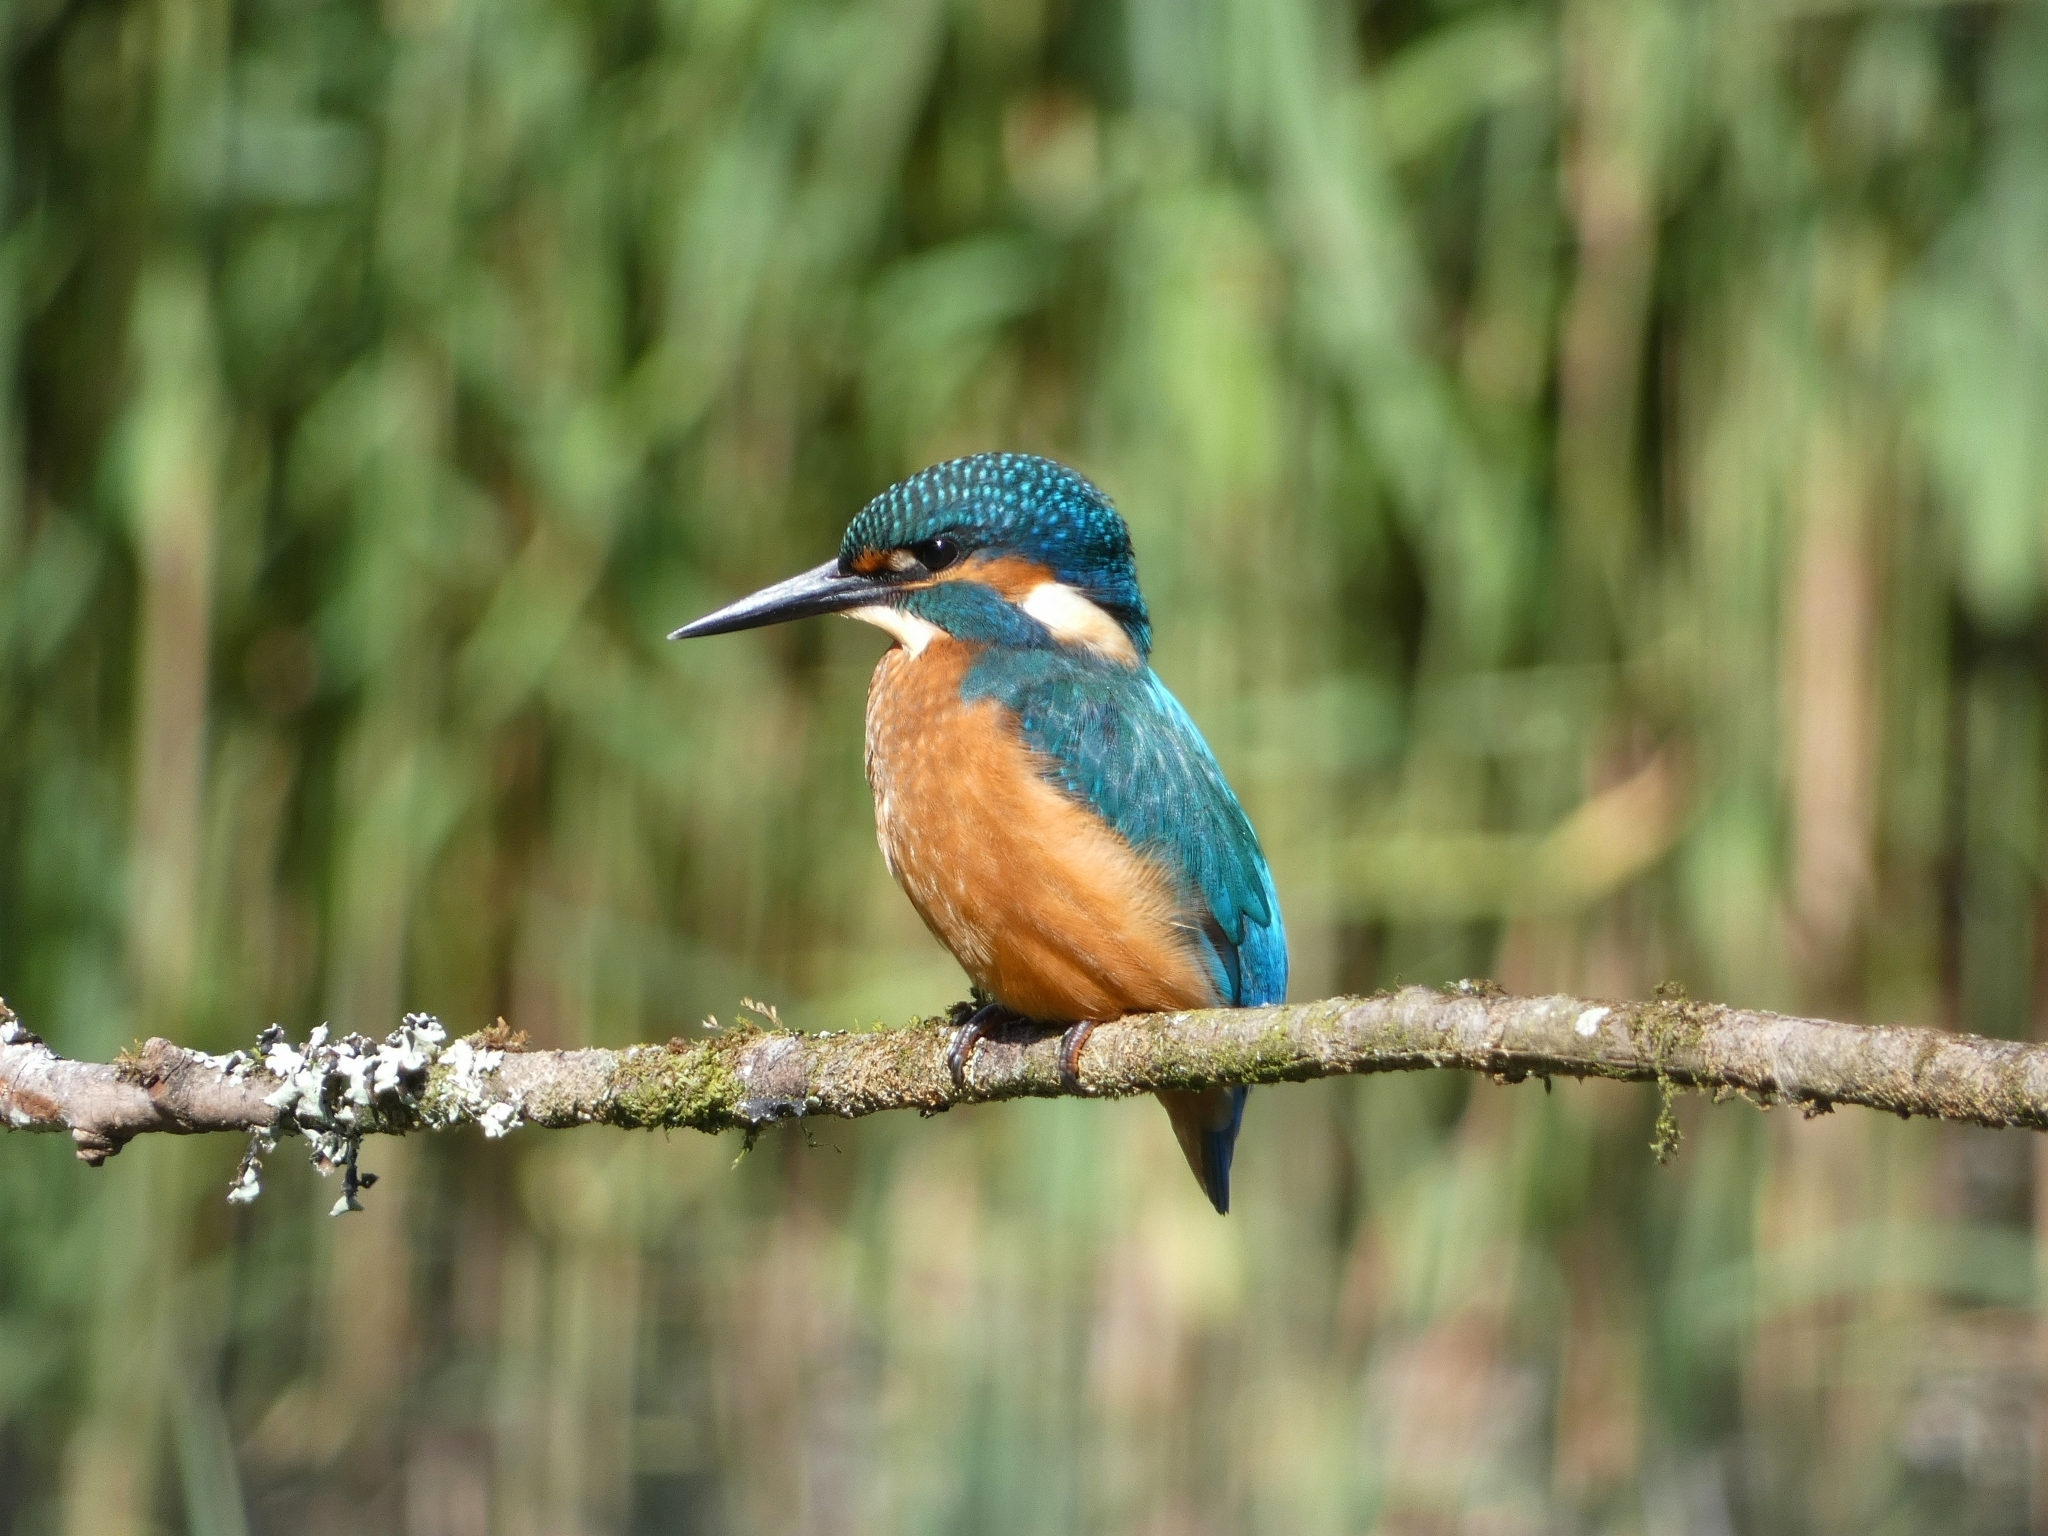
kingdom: Animalia
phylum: Chordata
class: Aves
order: Coraciiformes
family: Alcedinidae
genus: Alcedo
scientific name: Alcedo atthis
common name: Common kingfisher
